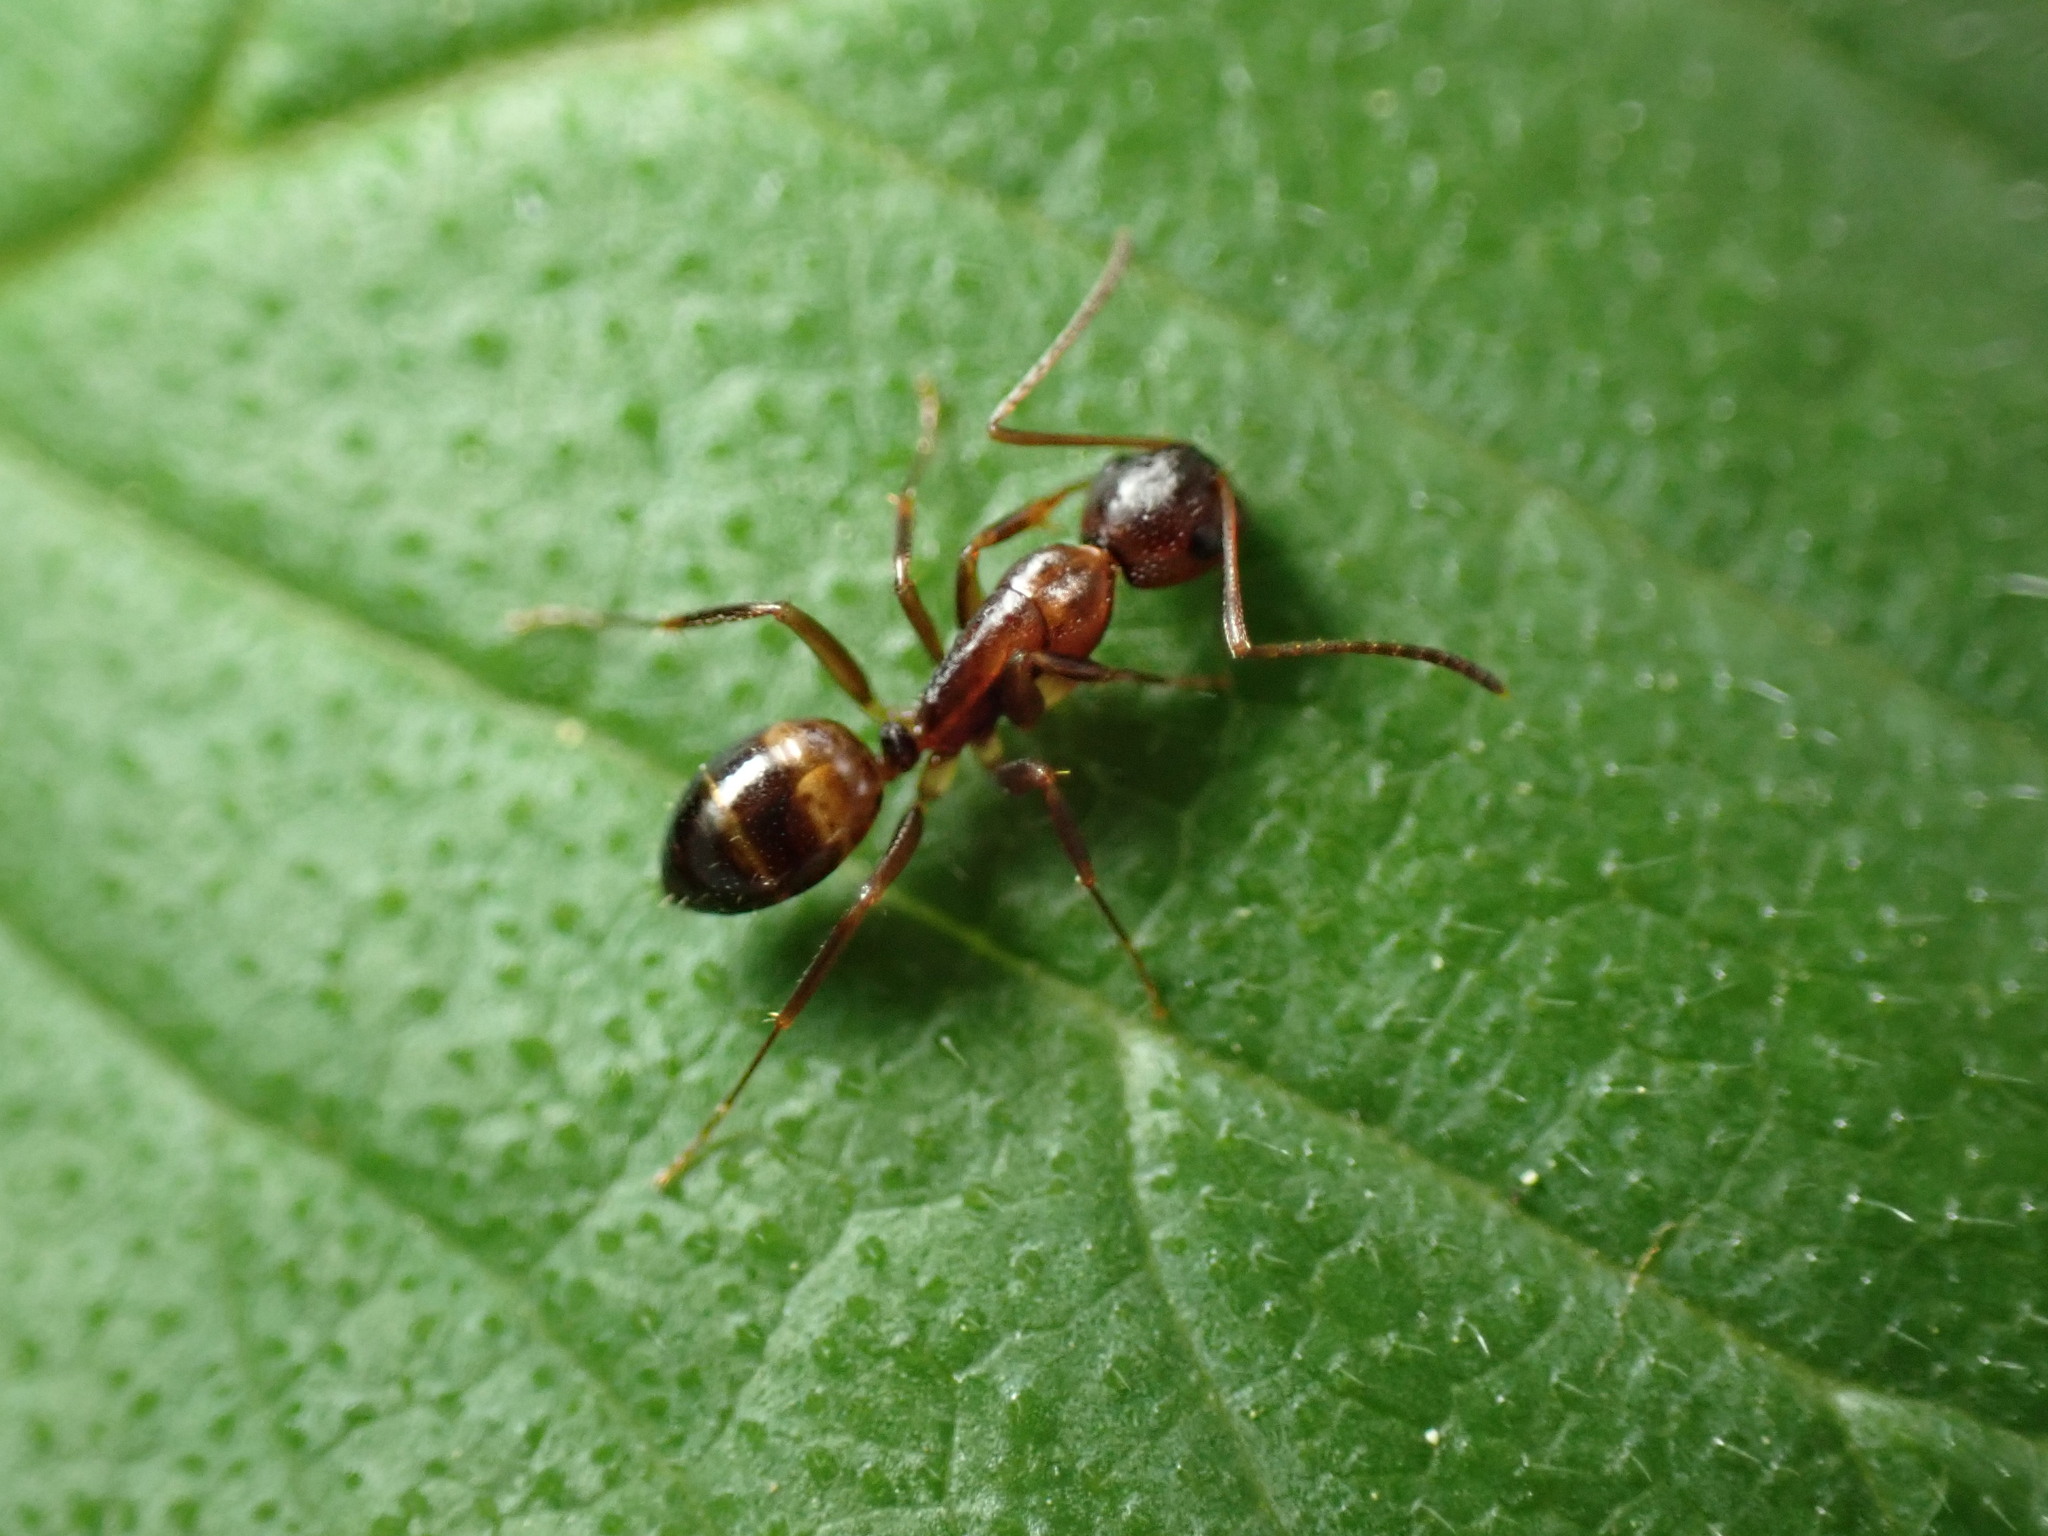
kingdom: Animalia
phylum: Arthropoda
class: Insecta
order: Hymenoptera
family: Formicidae
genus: Camponotus
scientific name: Camponotus subbarbatus
